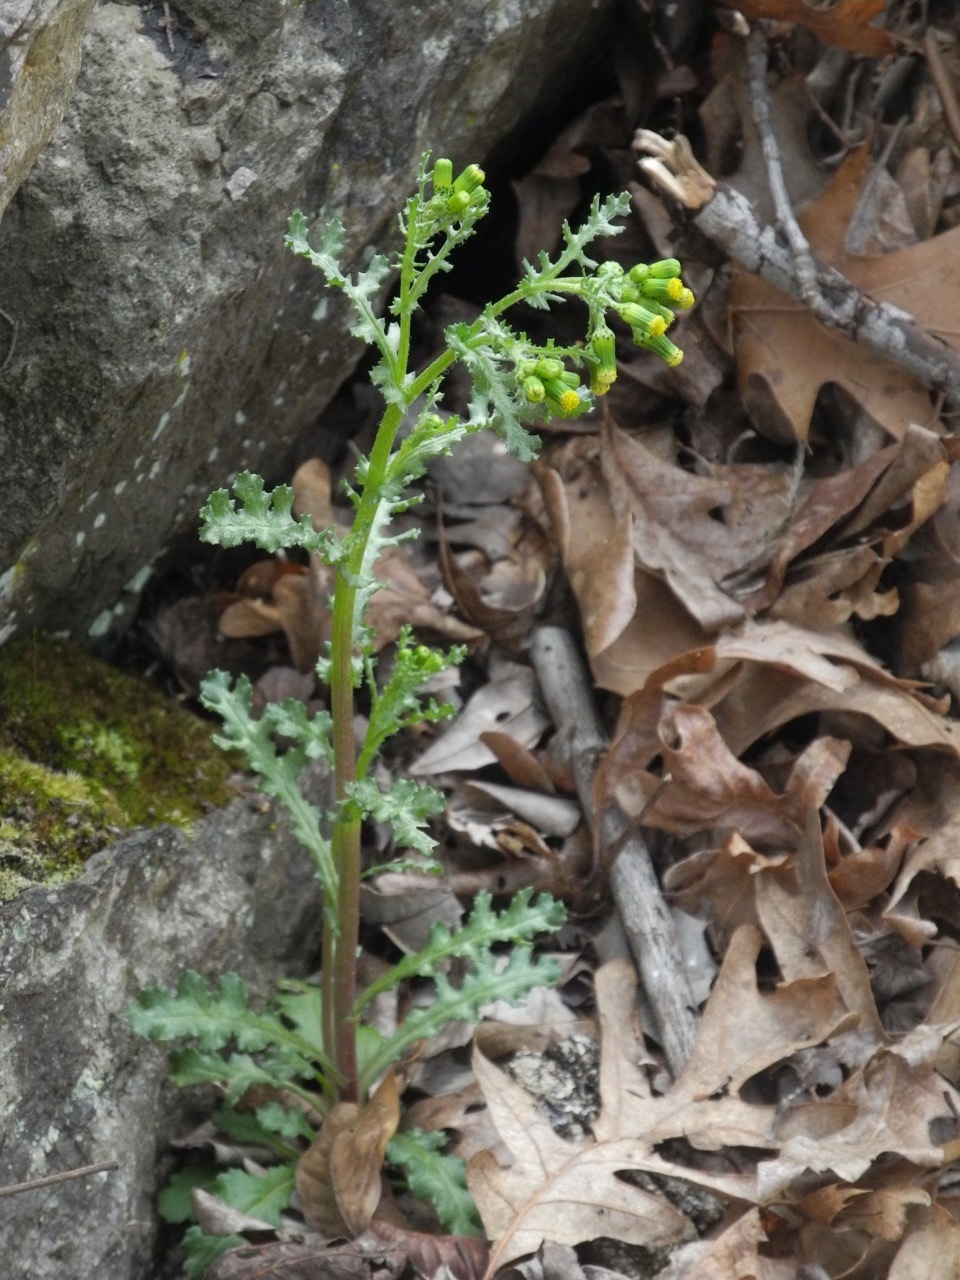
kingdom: Plantae
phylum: Tracheophyta
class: Magnoliopsida
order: Asterales
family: Asteraceae
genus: Senecio
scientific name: Senecio vulgaris
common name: Old-man-in-the-spring
